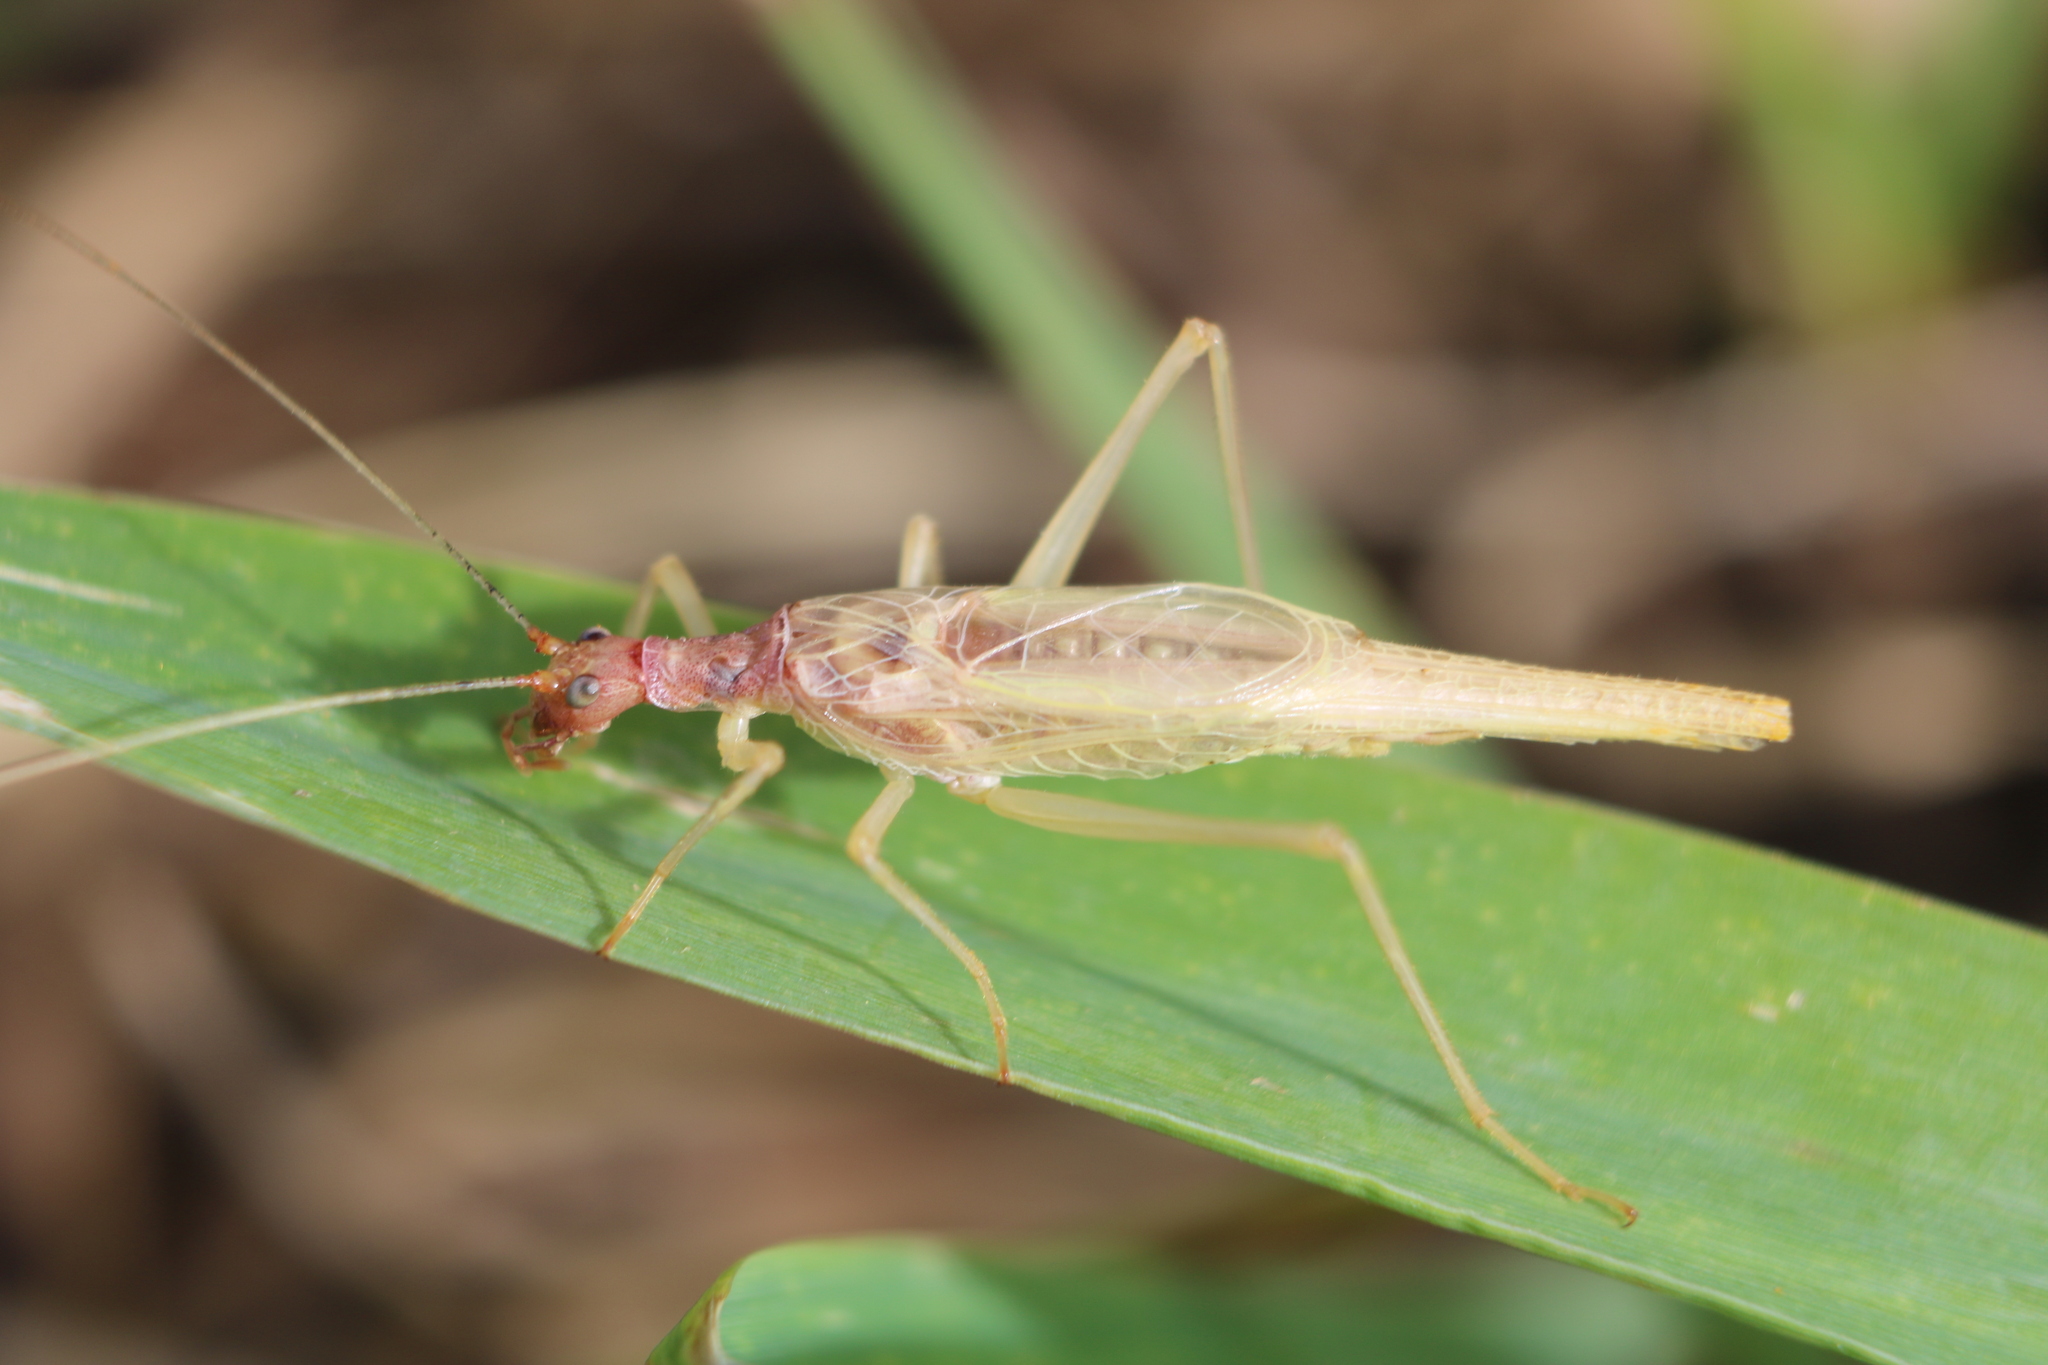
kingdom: Animalia
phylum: Arthropoda
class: Insecta
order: Orthoptera
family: Gryllidae
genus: Neoxabea
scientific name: Neoxabea bipunctata
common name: Two-spotted tree cricket
